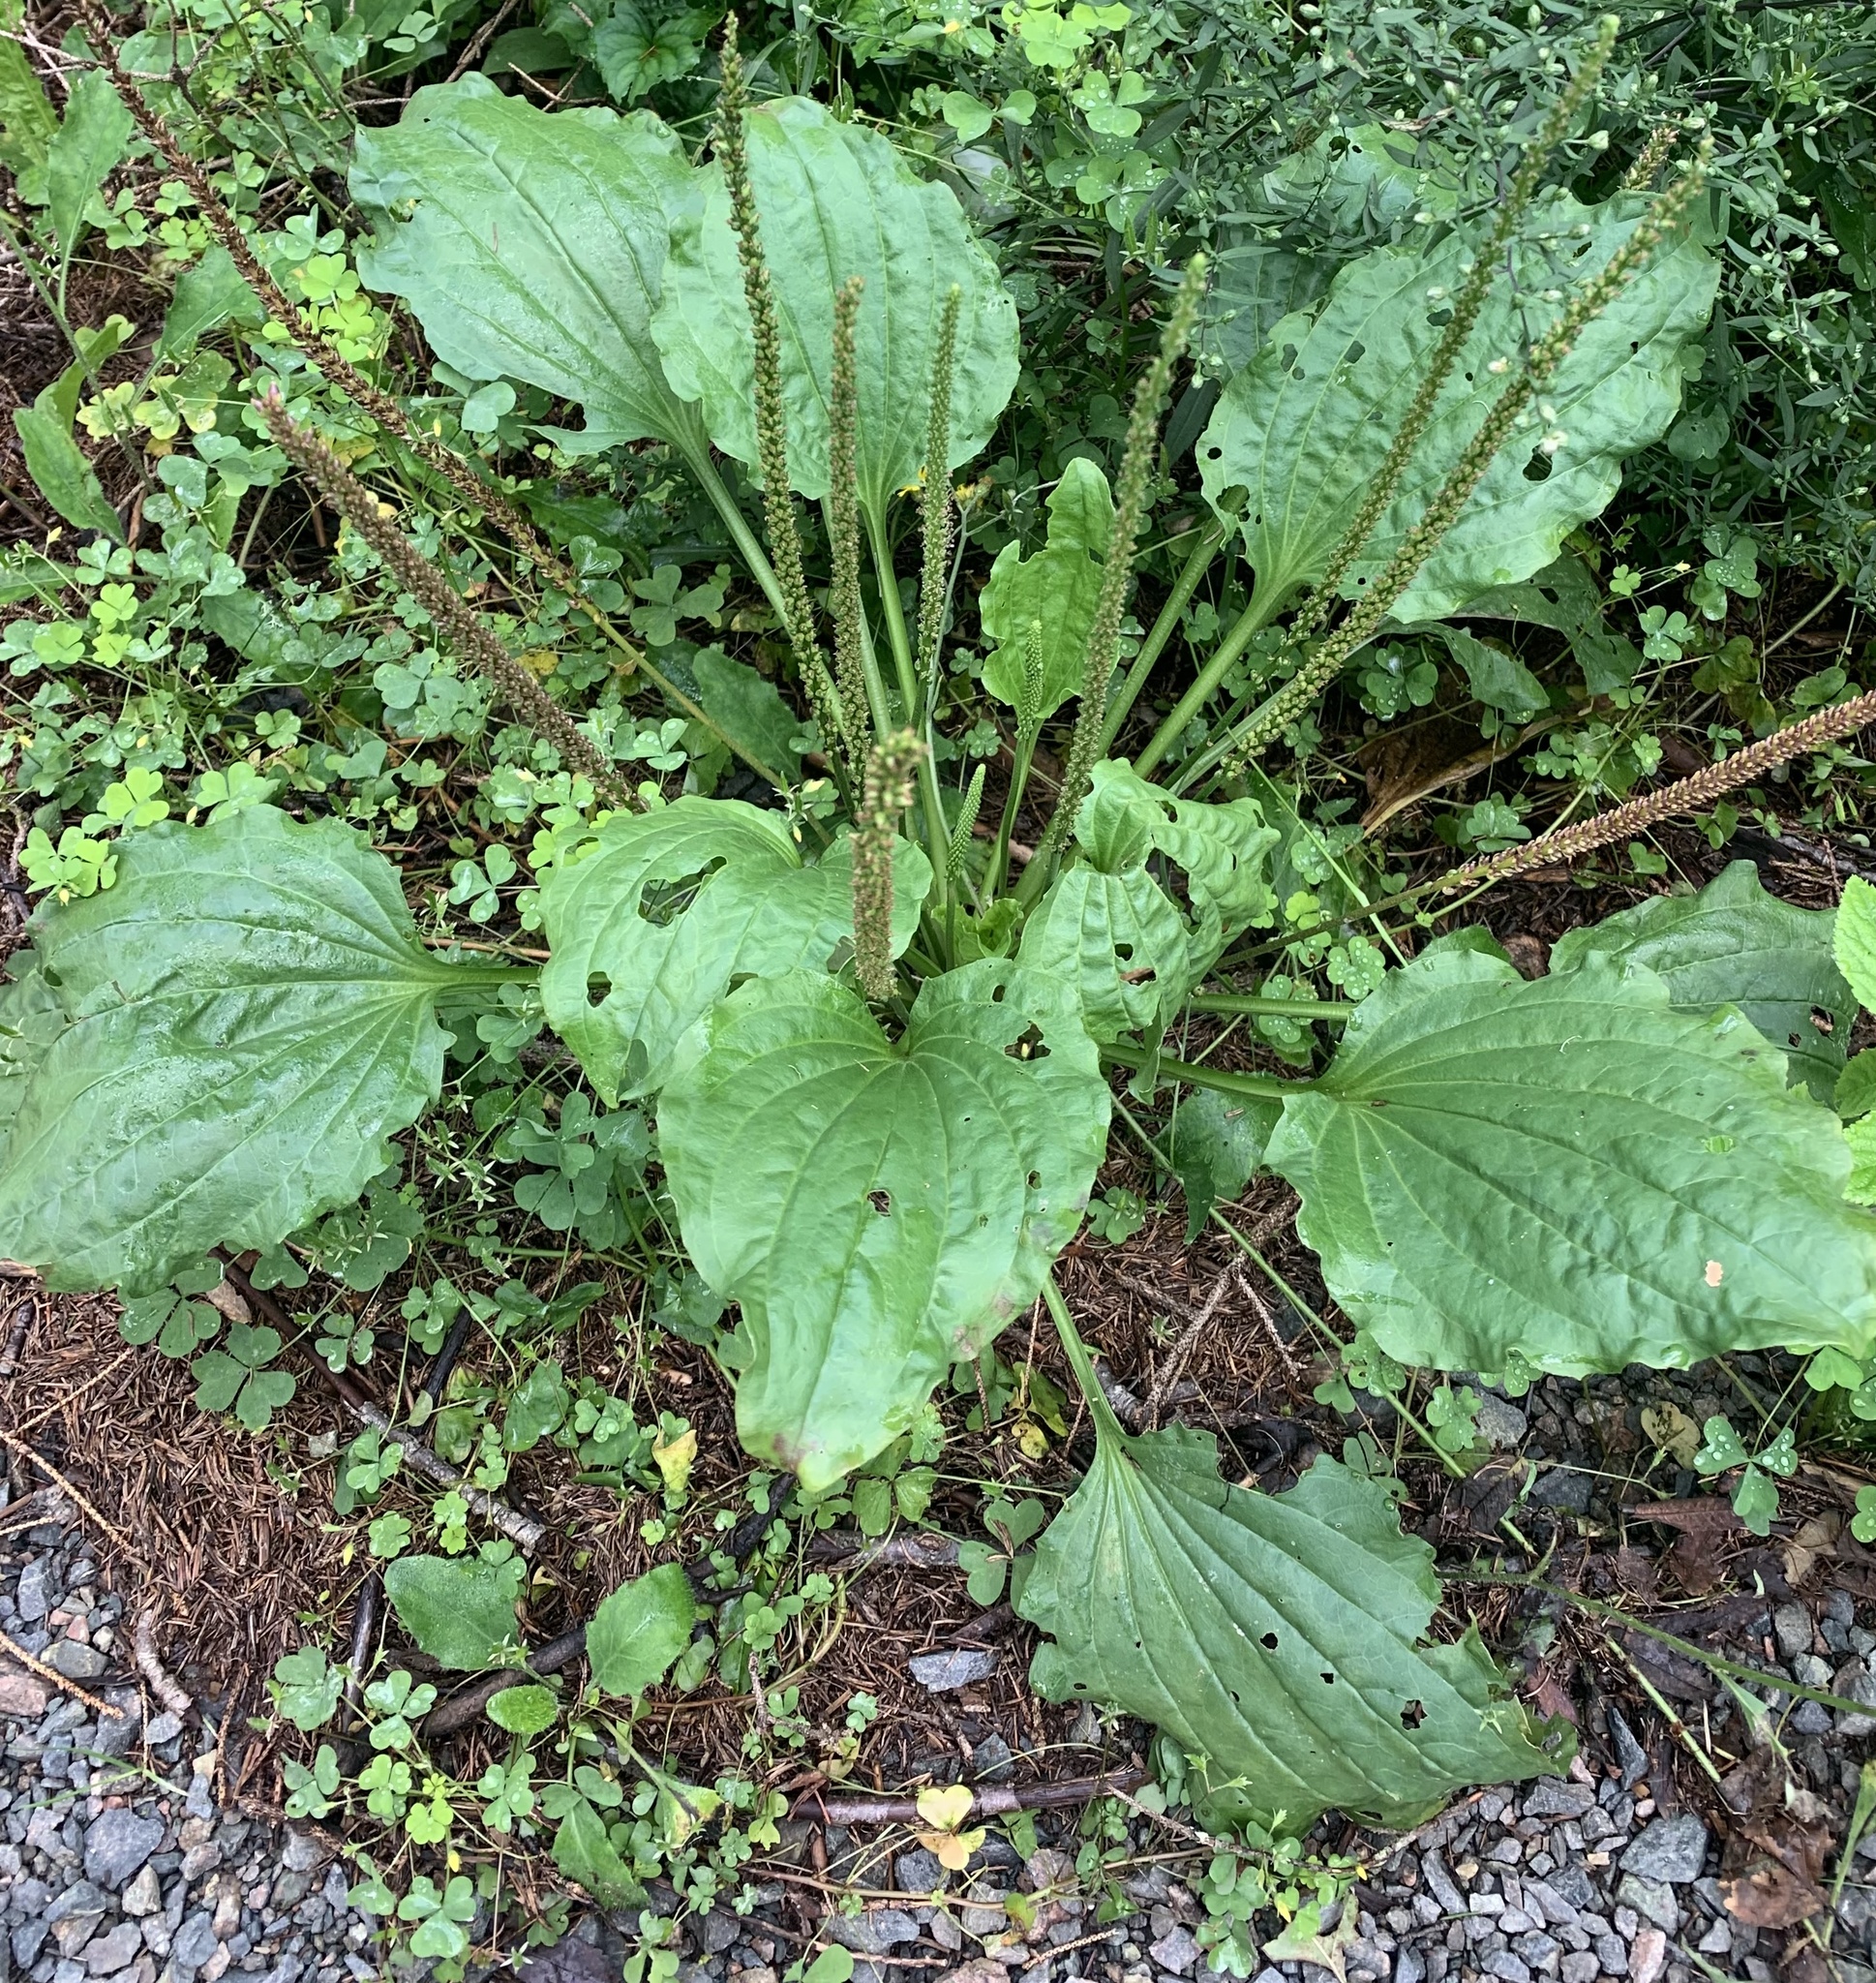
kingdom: Plantae
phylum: Tracheophyta
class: Magnoliopsida
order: Lamiales
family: Plantaginaceae
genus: Plantago
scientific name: Plantago major
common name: Common plantain
